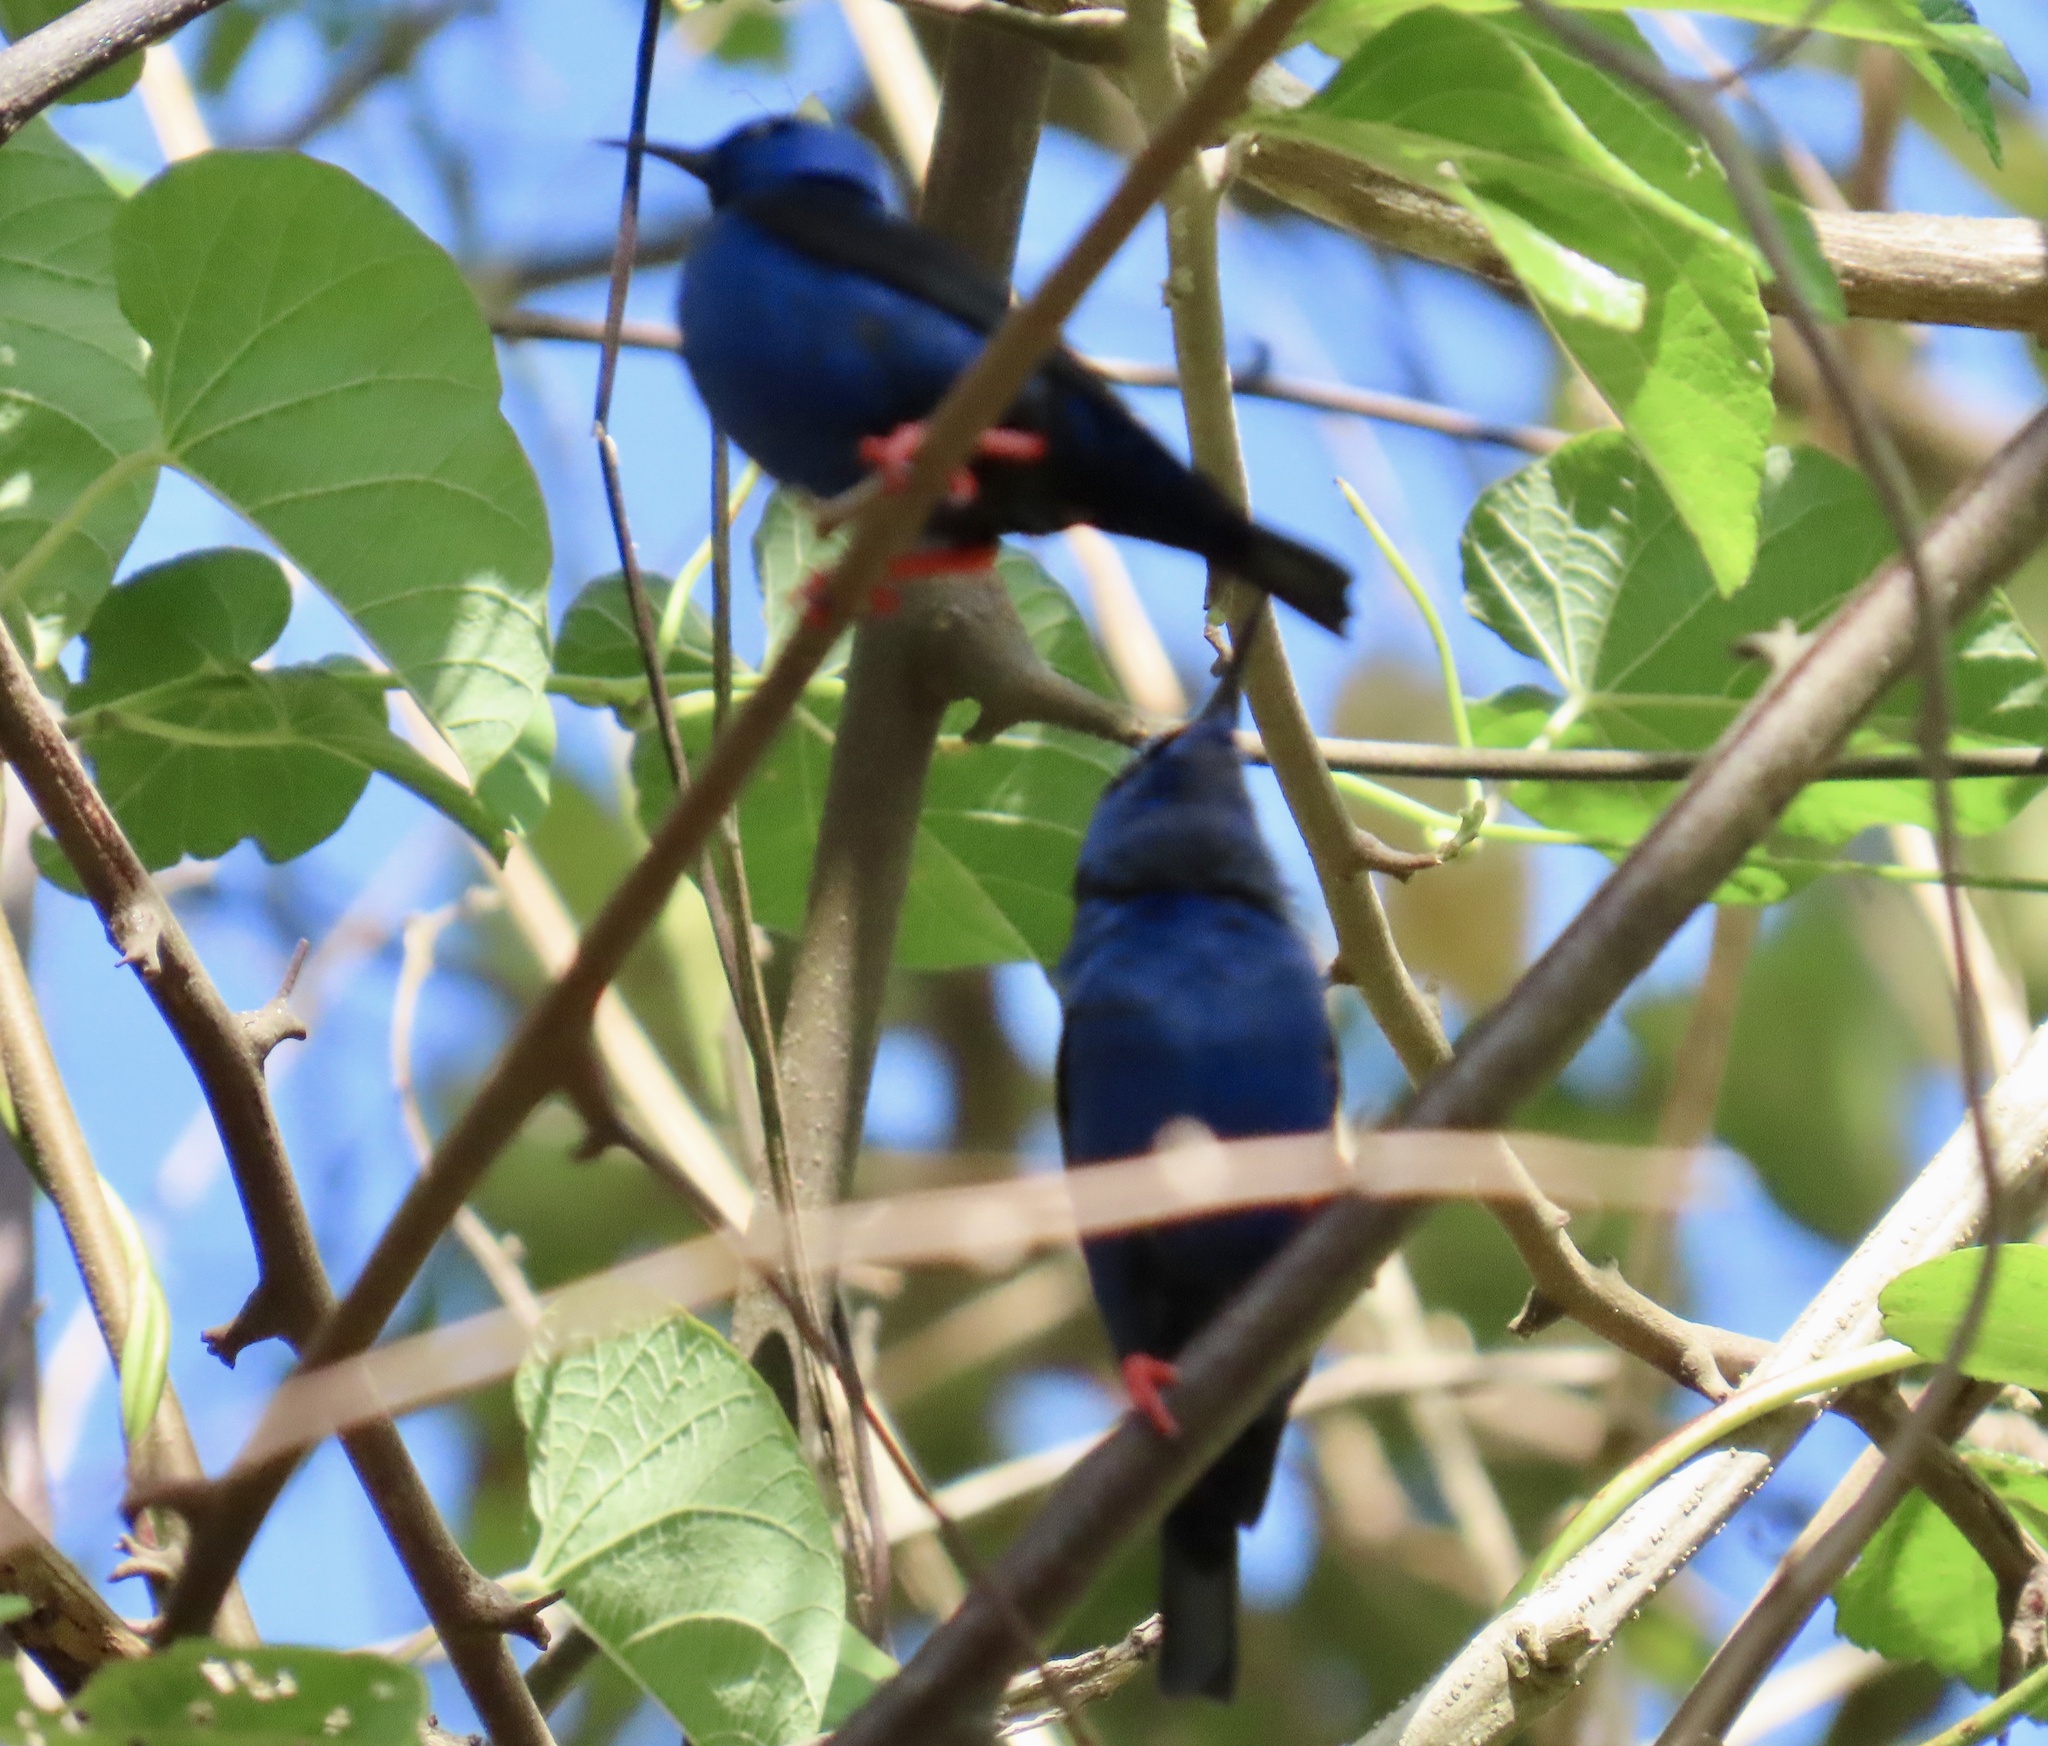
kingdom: Animalia
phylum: Chordata
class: Aves
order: Passeriformes
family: Thraupidae
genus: Cyanerpes
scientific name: Cyanerpes cyaneus
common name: Red-legged honeycreeper
